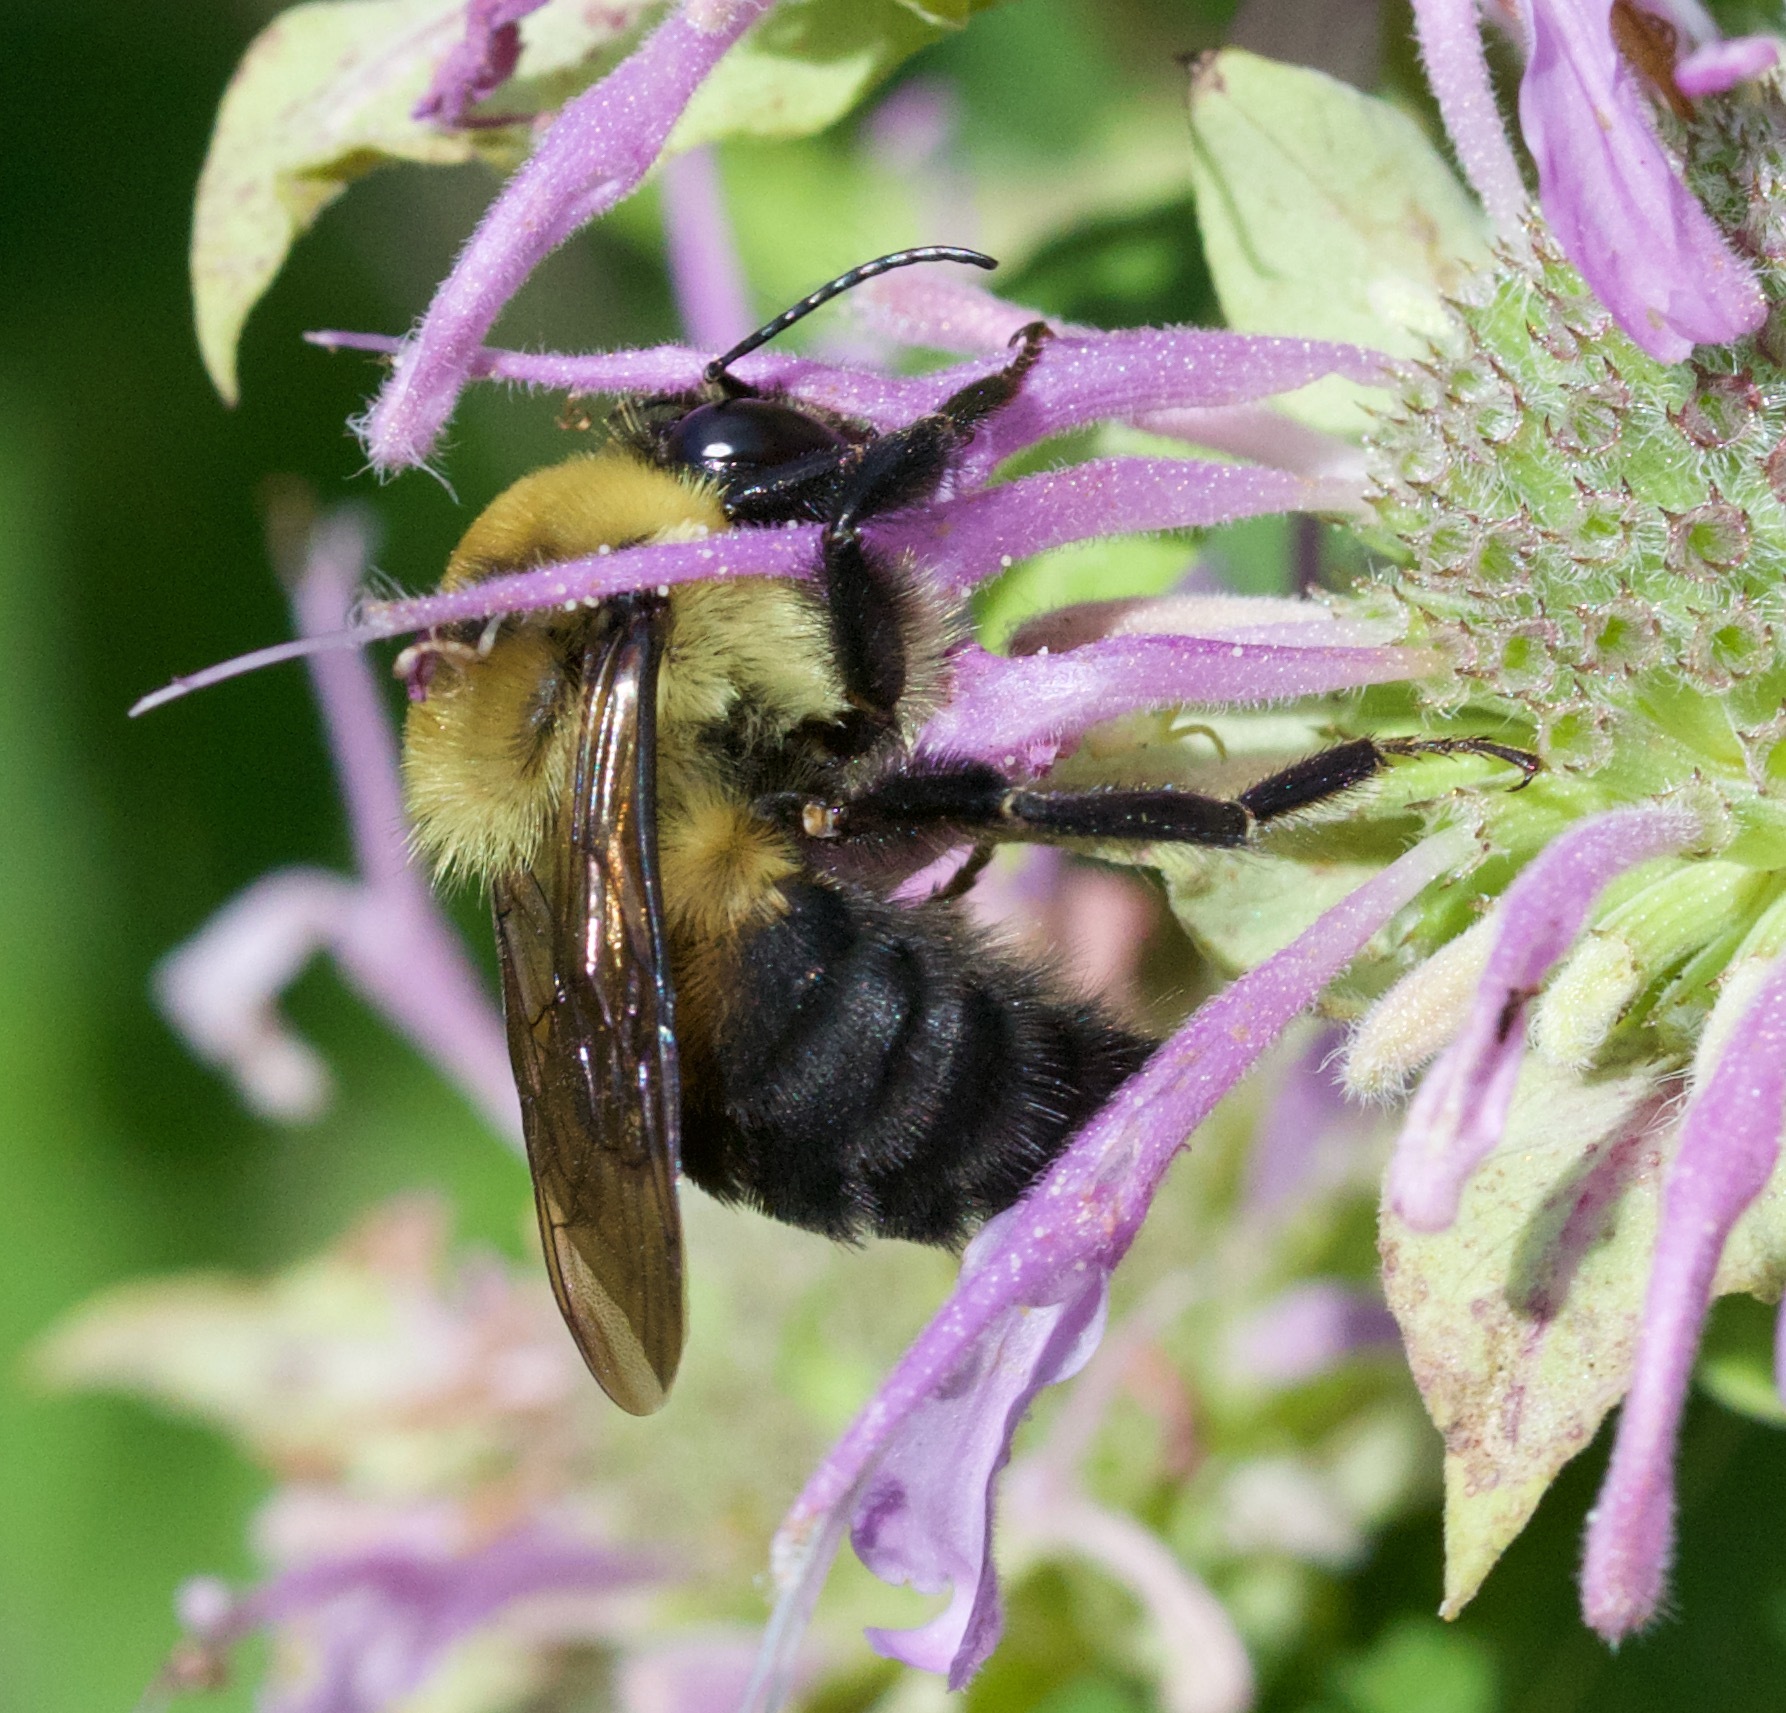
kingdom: Animalia
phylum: Arthropoda
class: Insecta
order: Hymenoptera
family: Apidae
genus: Bombus
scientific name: Bombus griseocollis
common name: Brown-belted bumble bee
